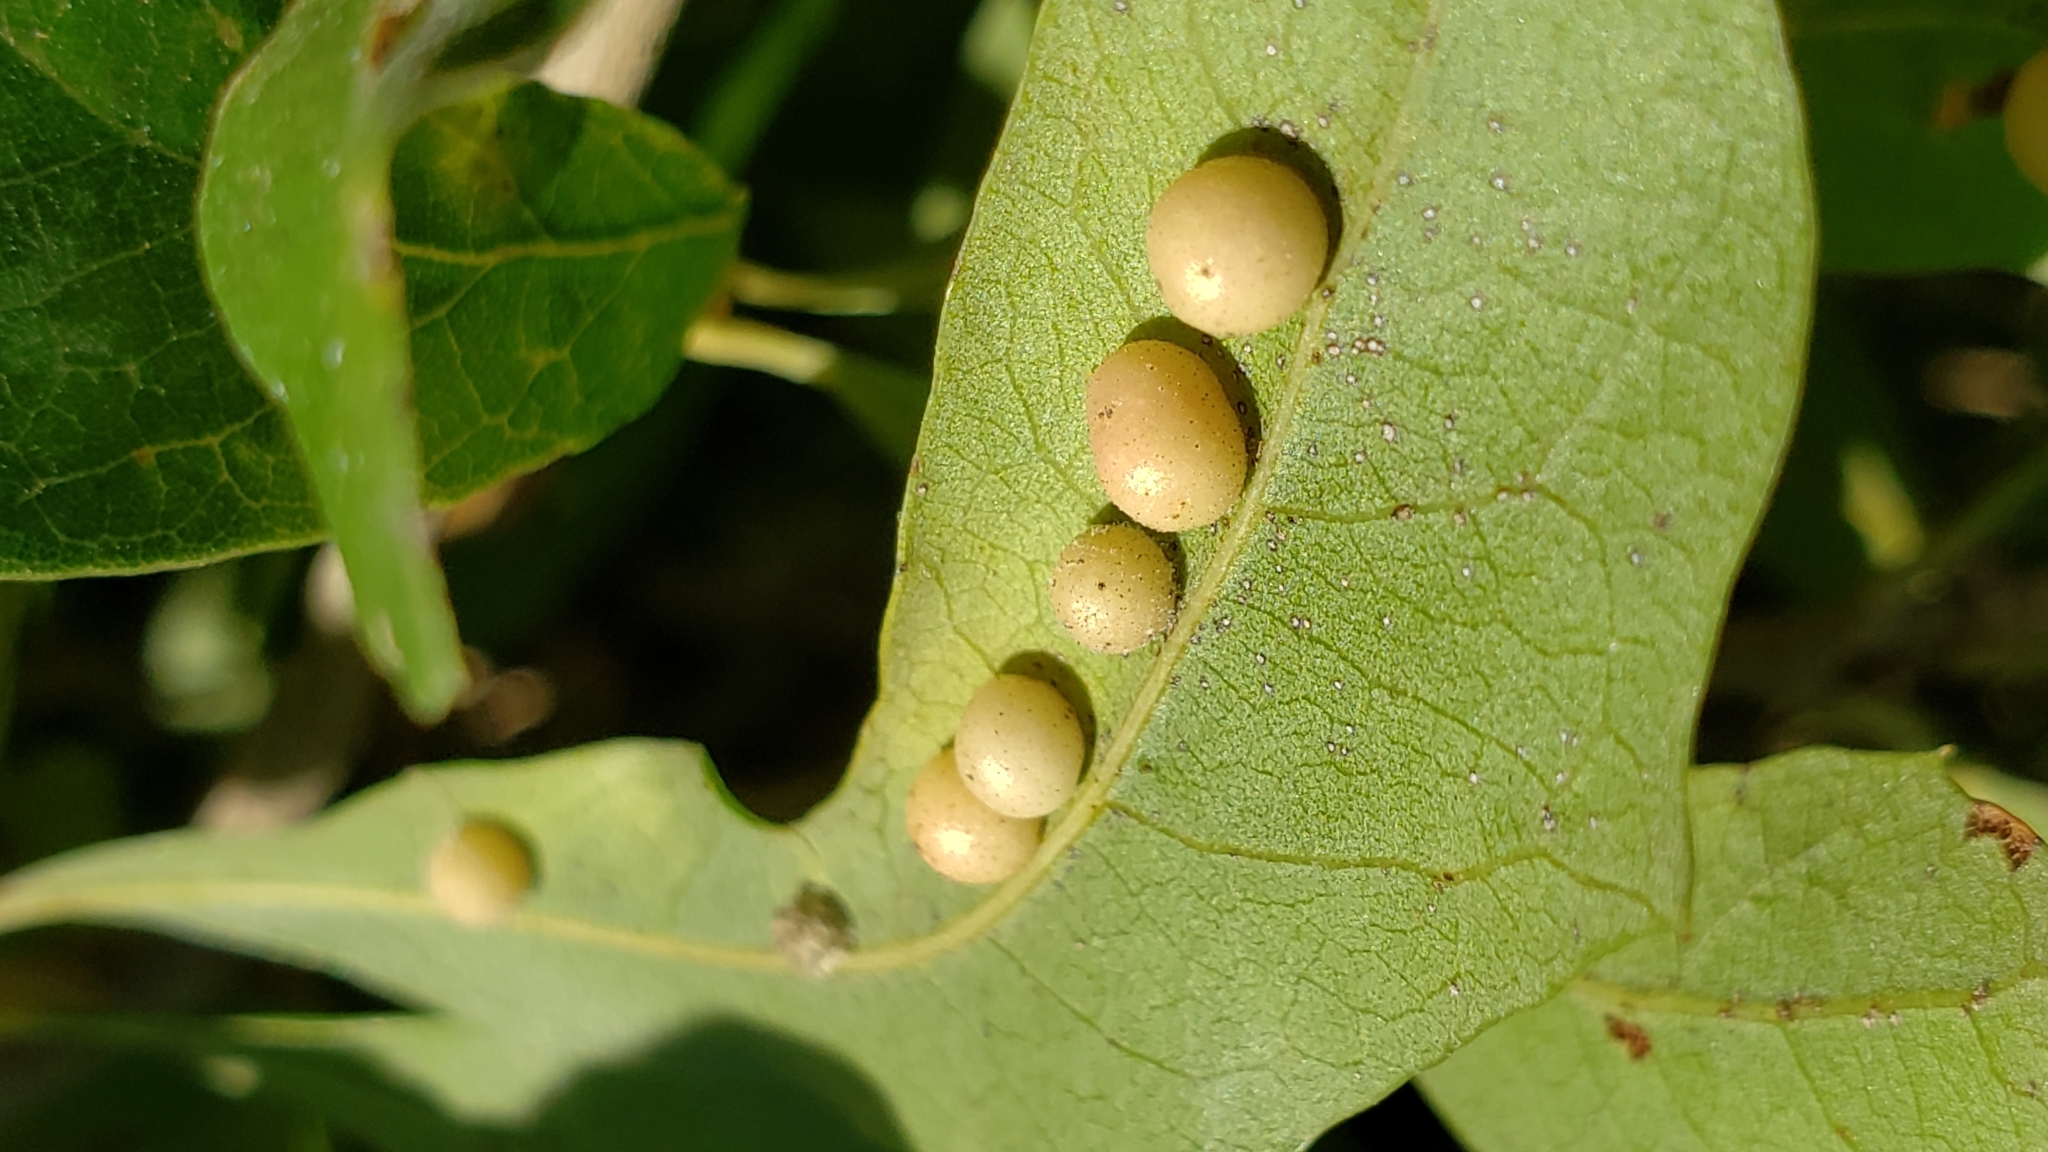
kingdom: Animalia
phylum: Arthropoda
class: Insecta
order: Hymenoptera
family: Cynipidae
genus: Belonocnema
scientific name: Belonocnema kinseyi
